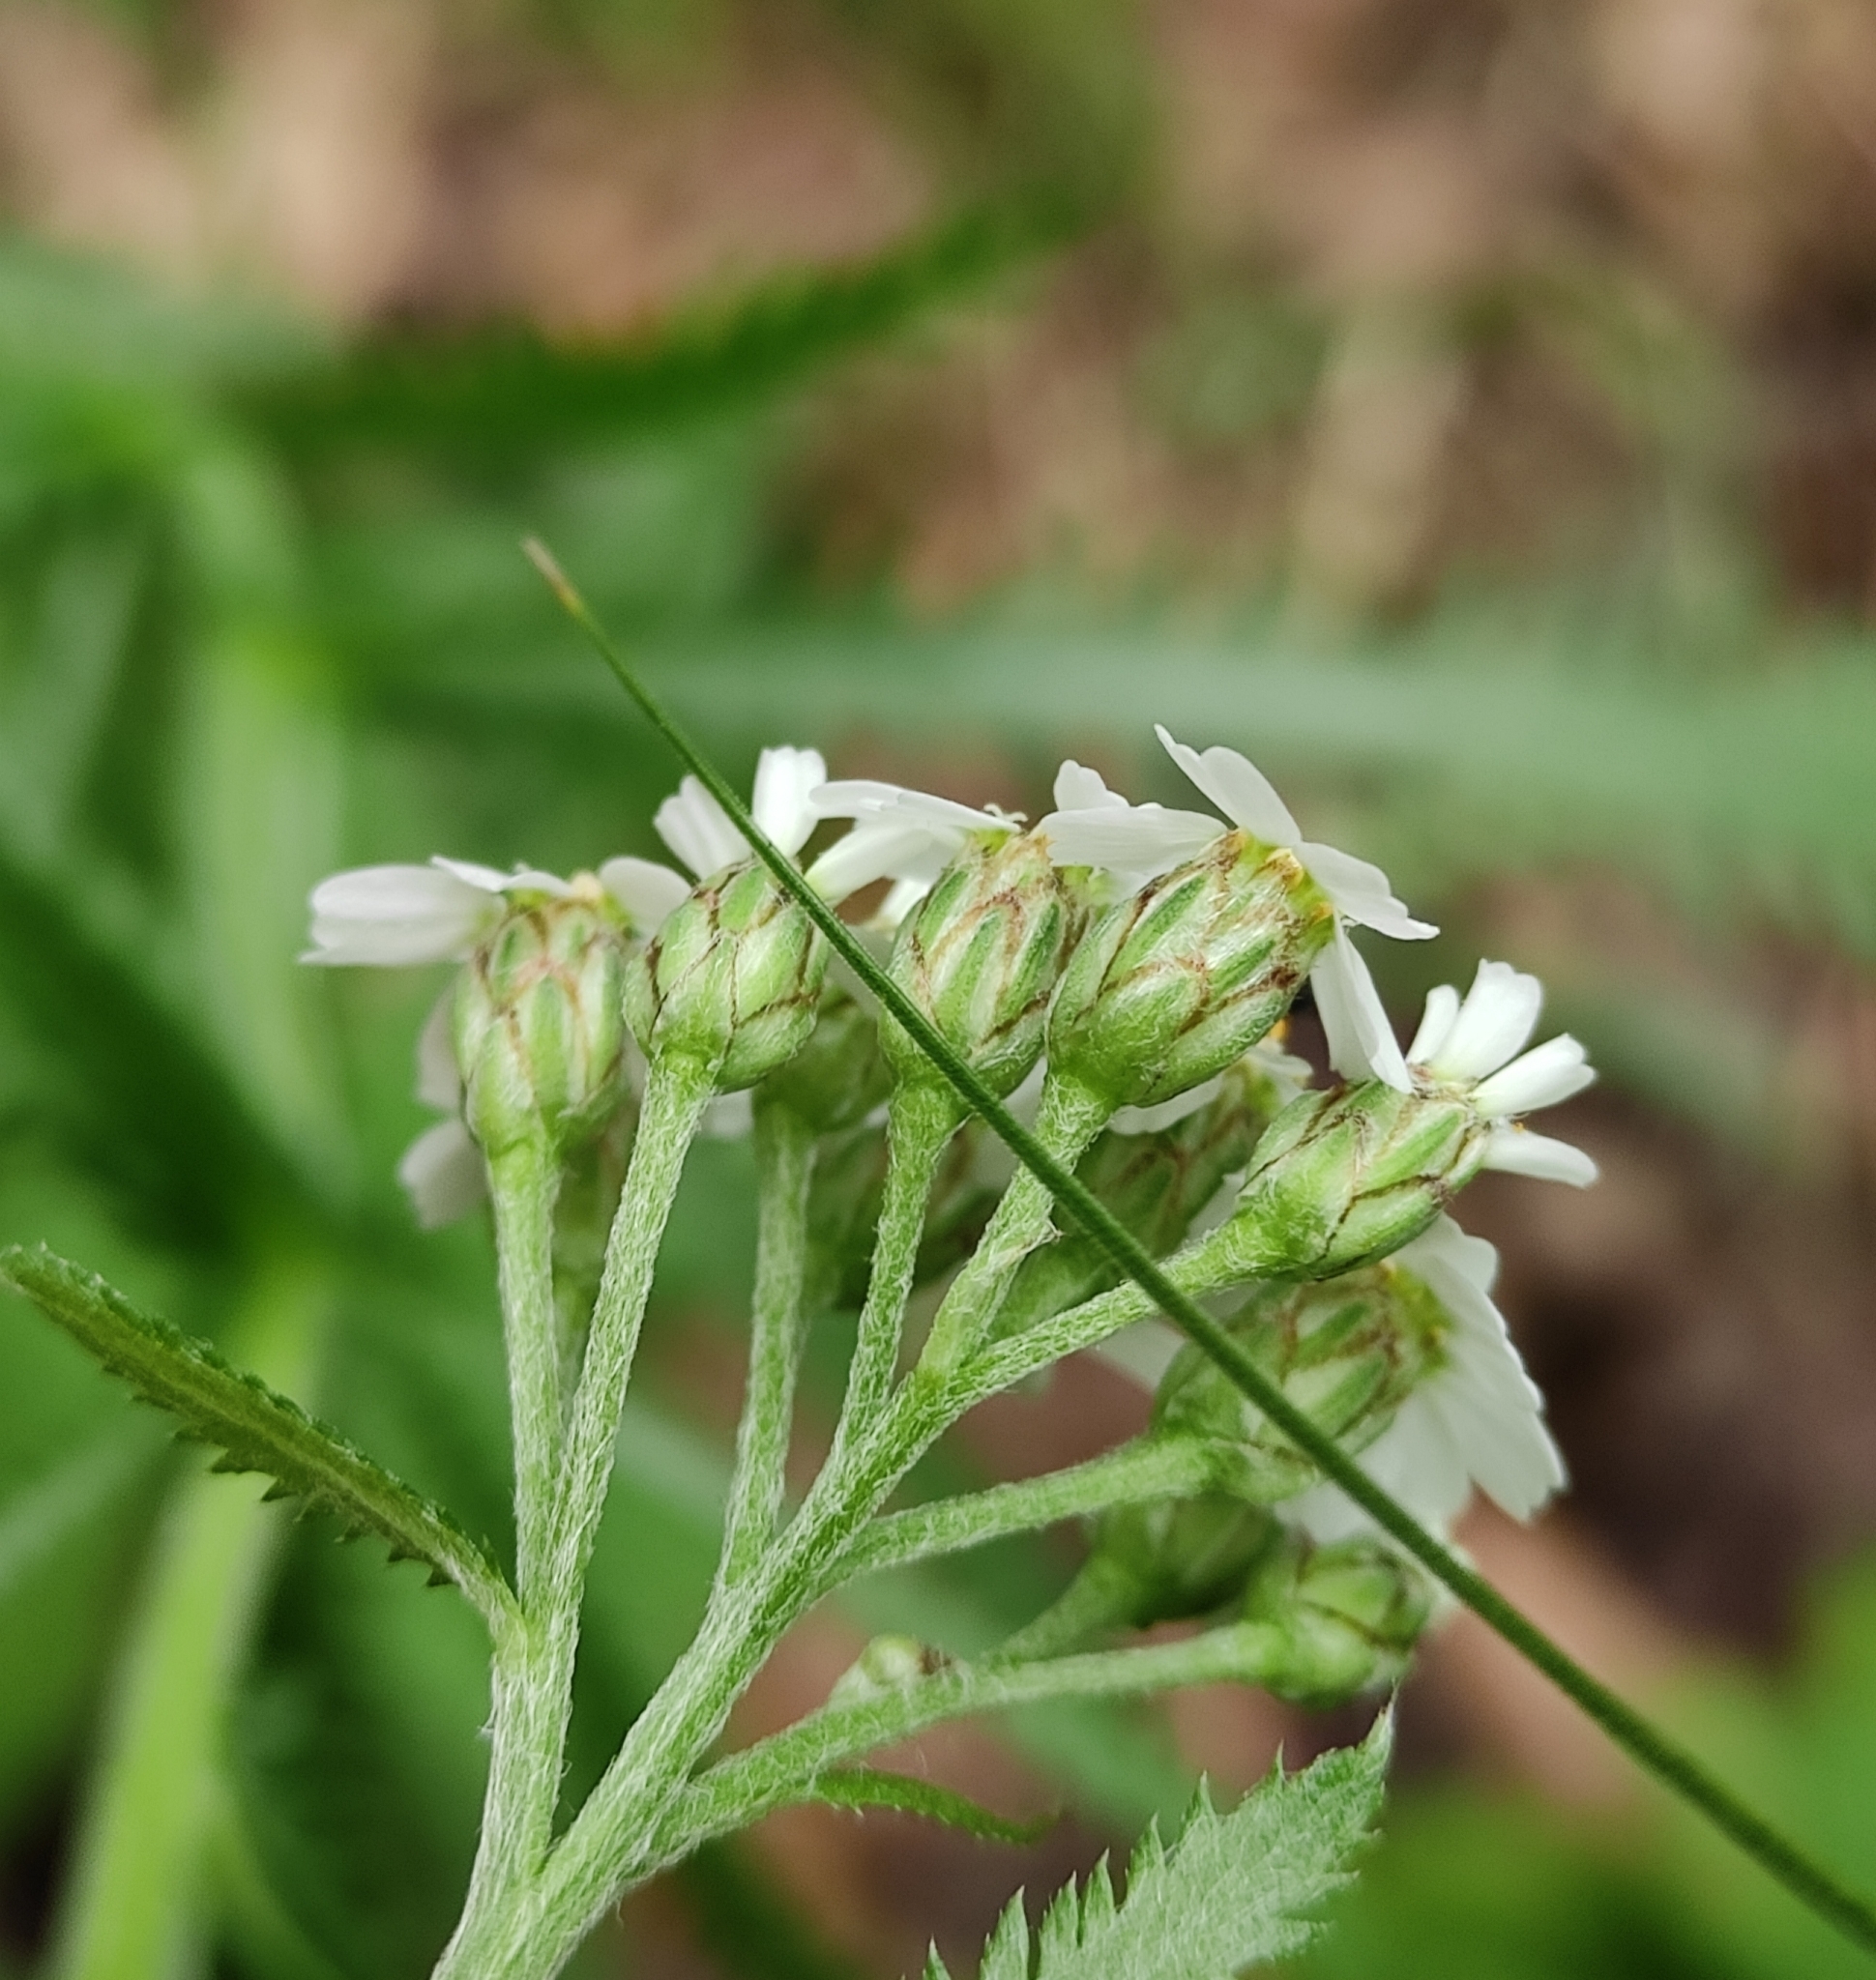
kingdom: Plantae
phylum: Tracheophyta
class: Magnoliopsida
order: Asterales
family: Asteraceae
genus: Achillea
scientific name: Achillea alpina
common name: Siberian yarrow
